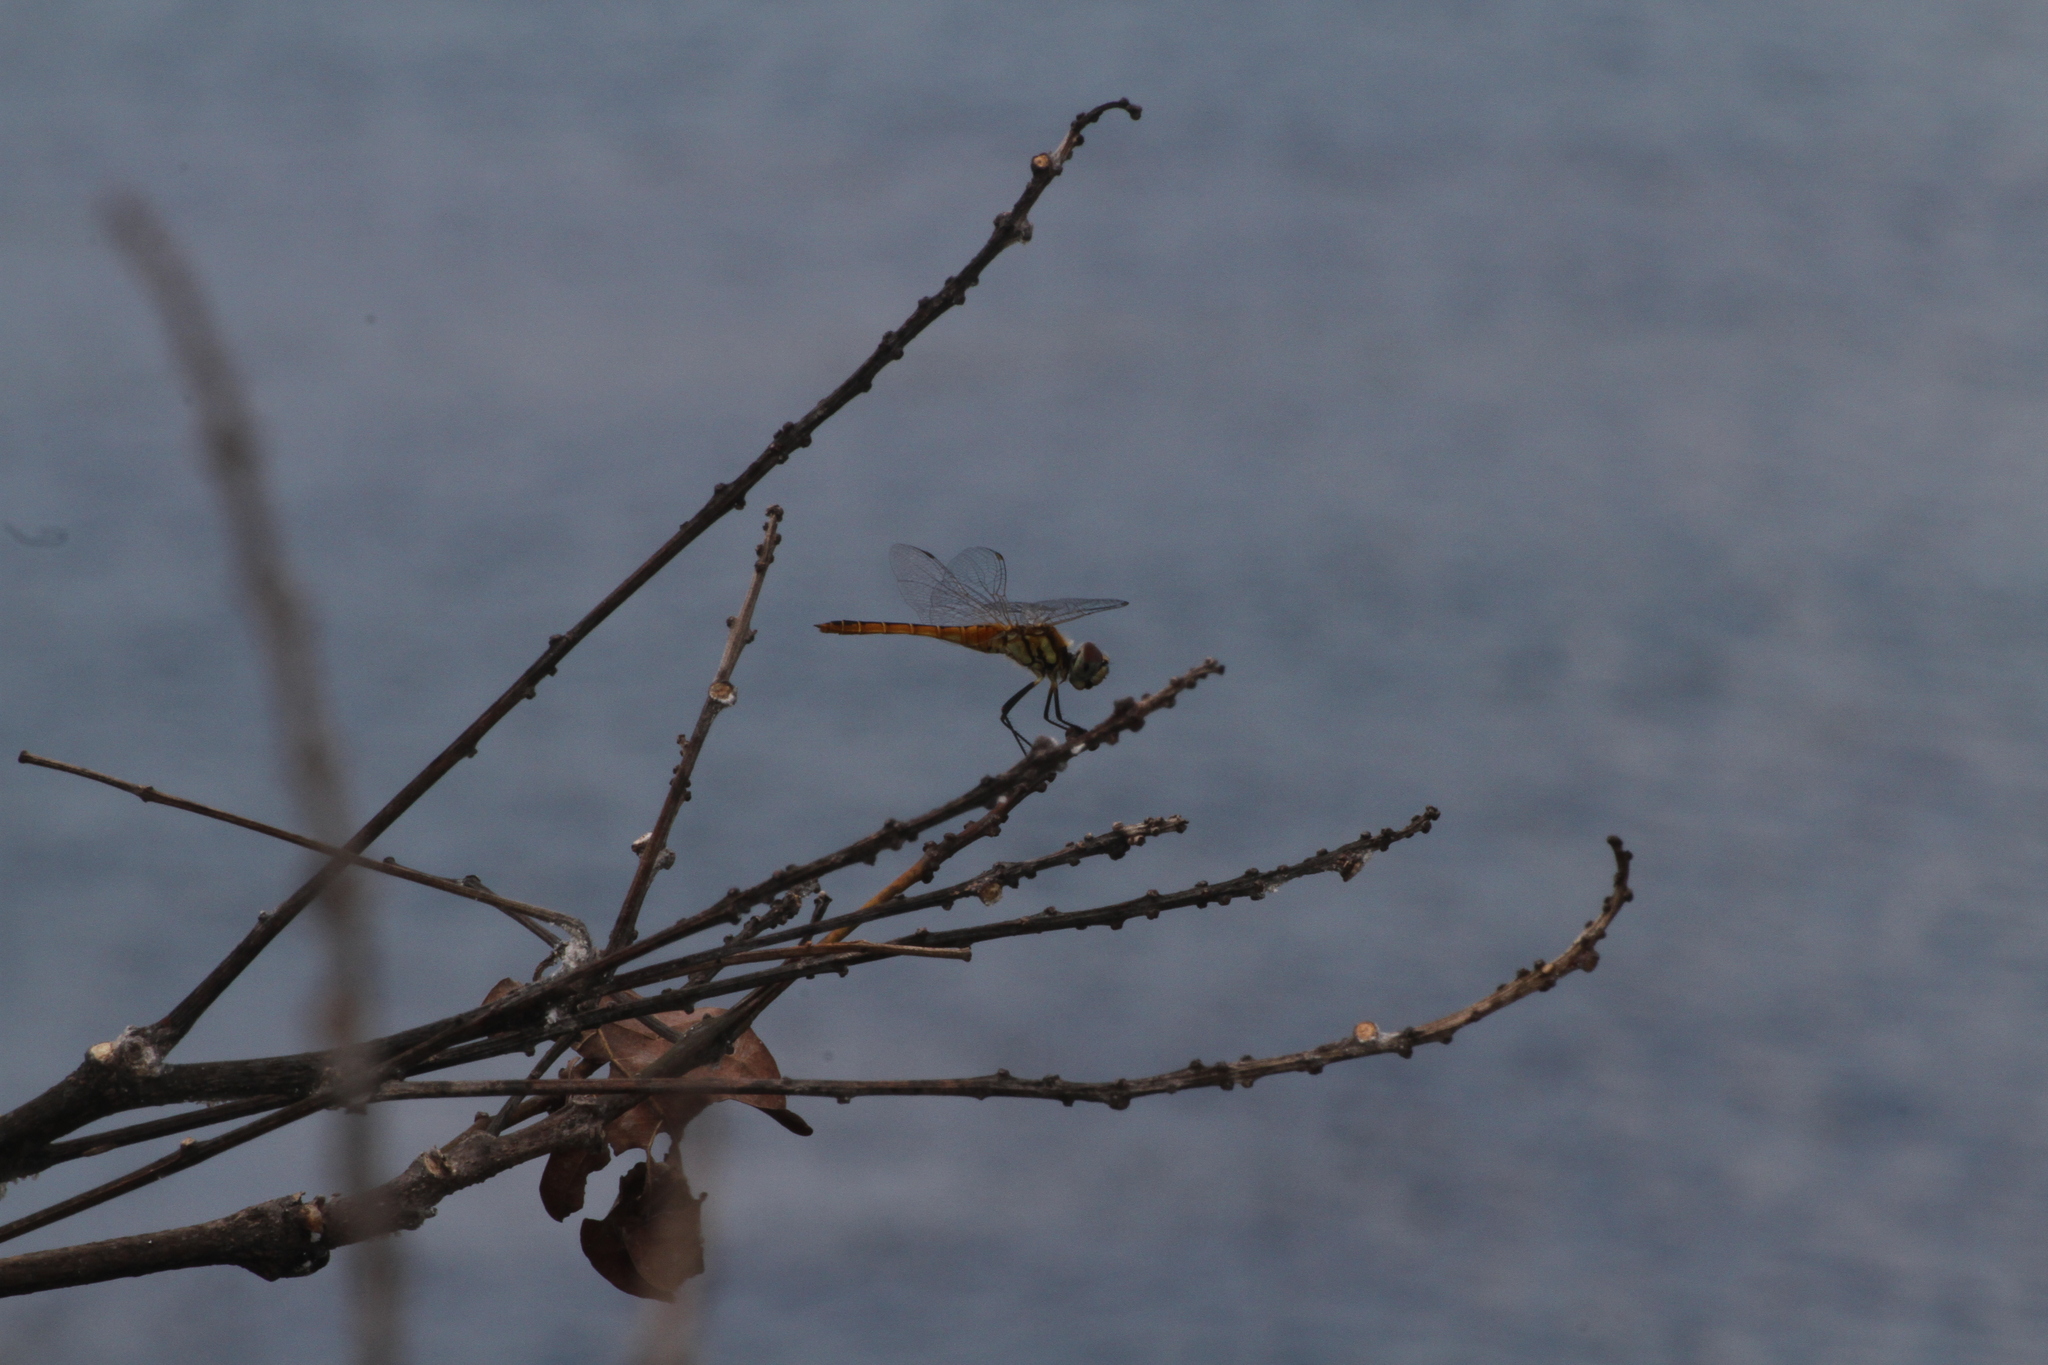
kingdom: Animalia
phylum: Arthropoda
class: Insecta
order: Odonata
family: Libellulidae
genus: Macrodiplax
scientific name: Macrodiplax cora
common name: Coastal glider
